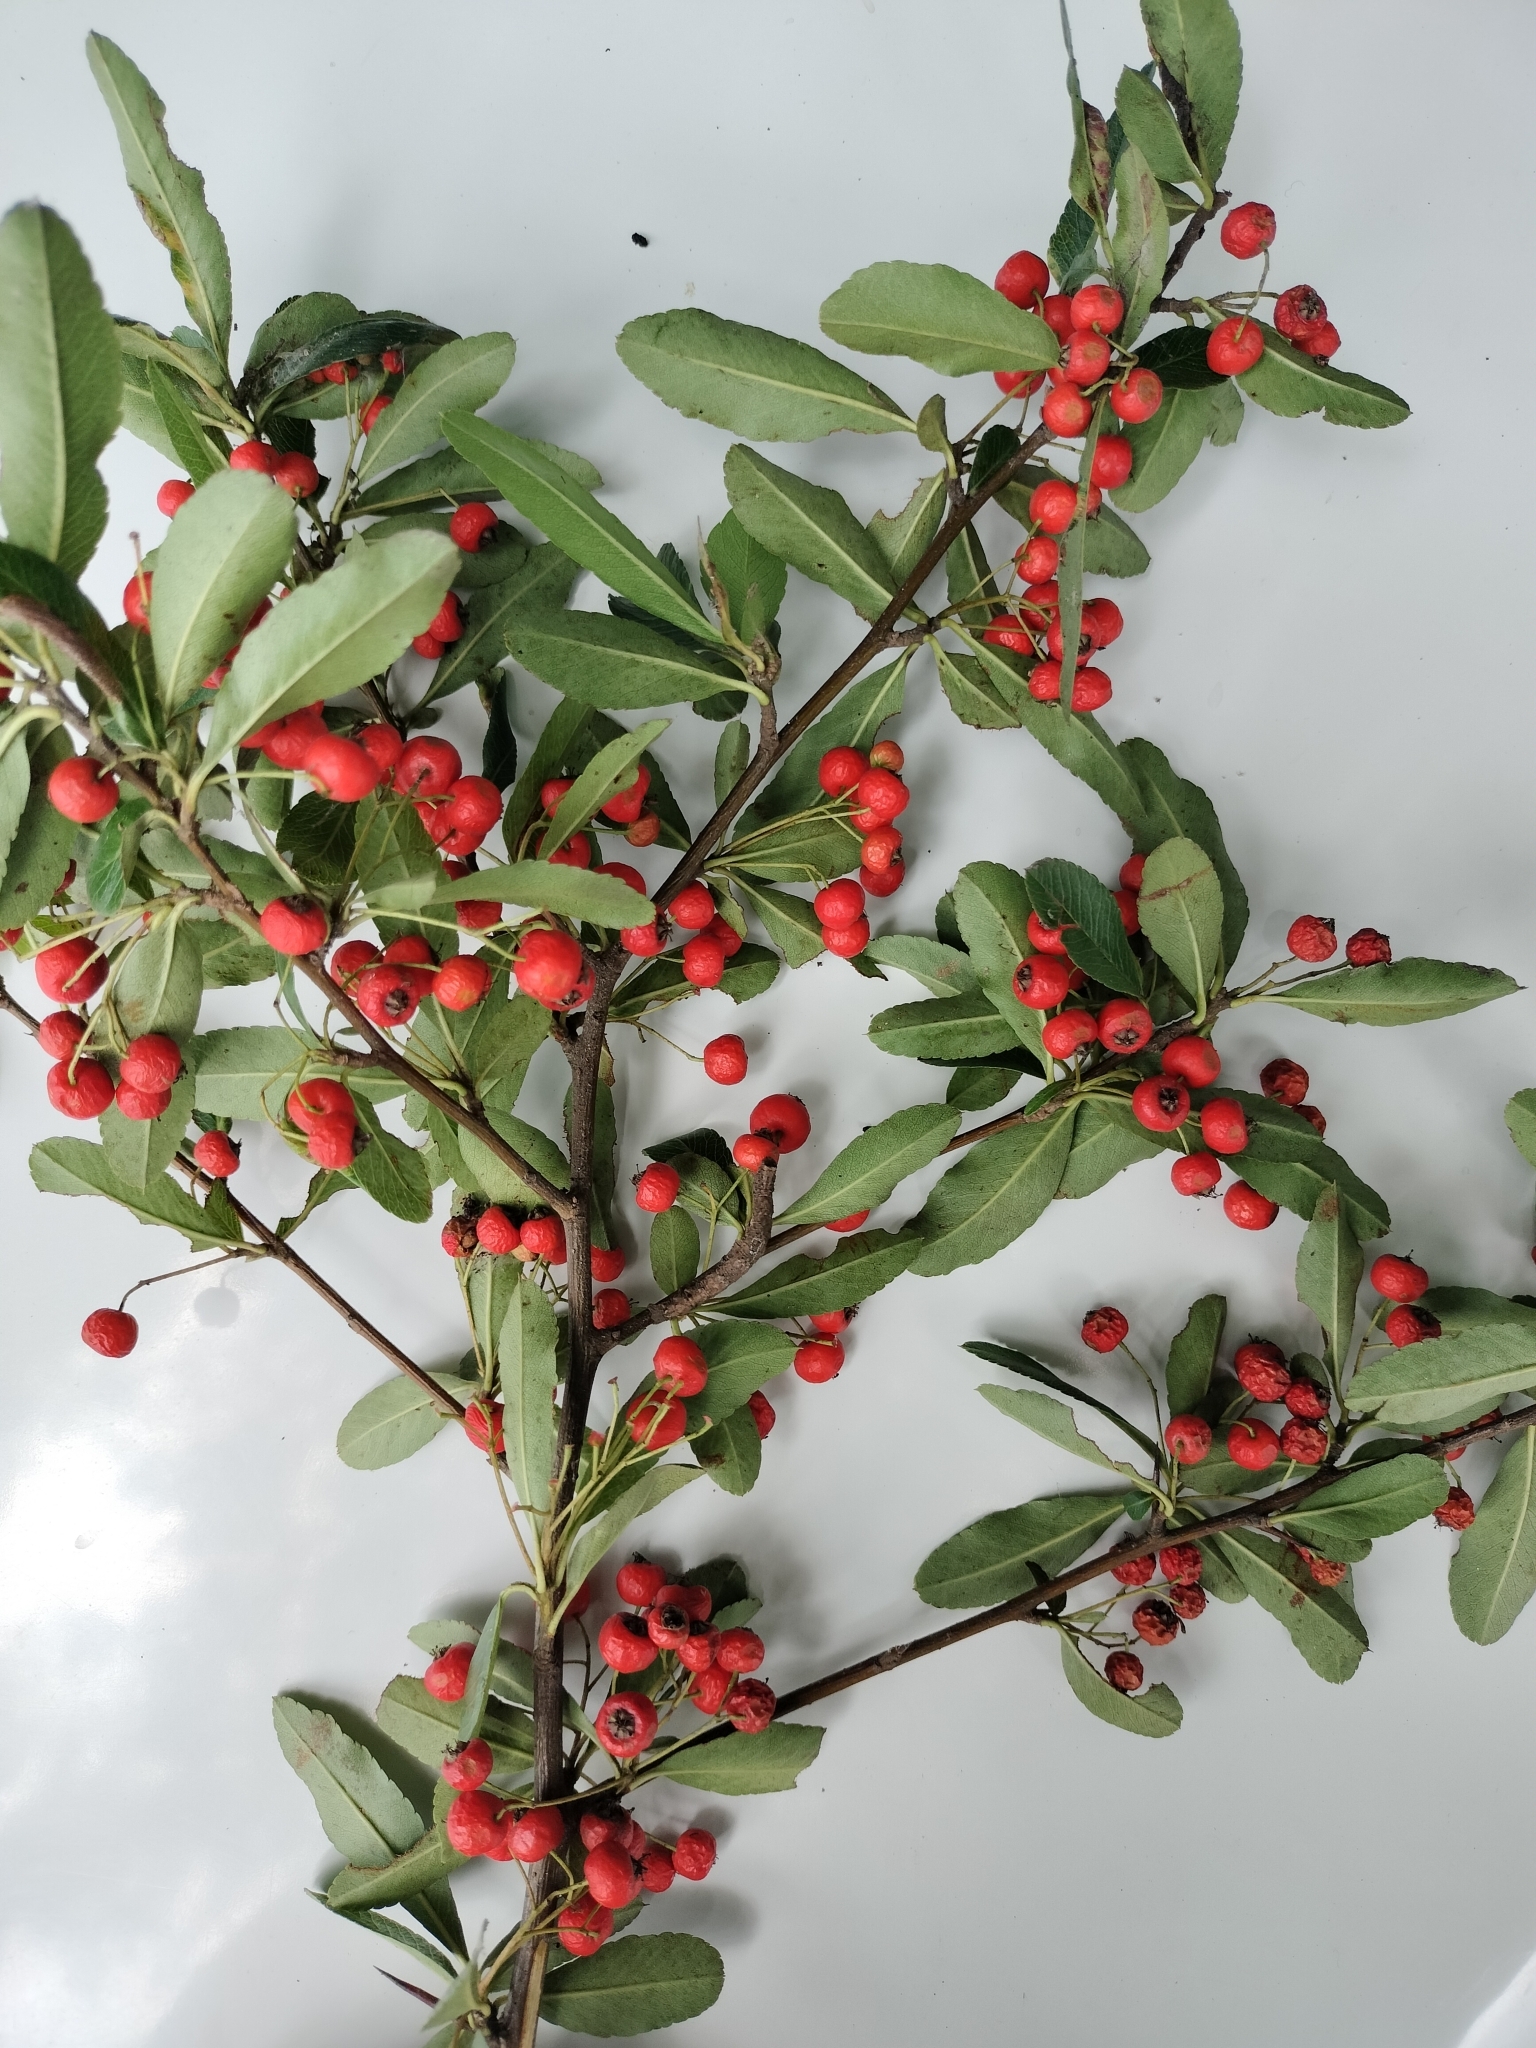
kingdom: Plantae
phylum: Tracheophyta
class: Magnoliopsida
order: Rosales
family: Rosaceae
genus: Pyracantha
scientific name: Pyracantha crenulata
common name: Nepalese firethorn
